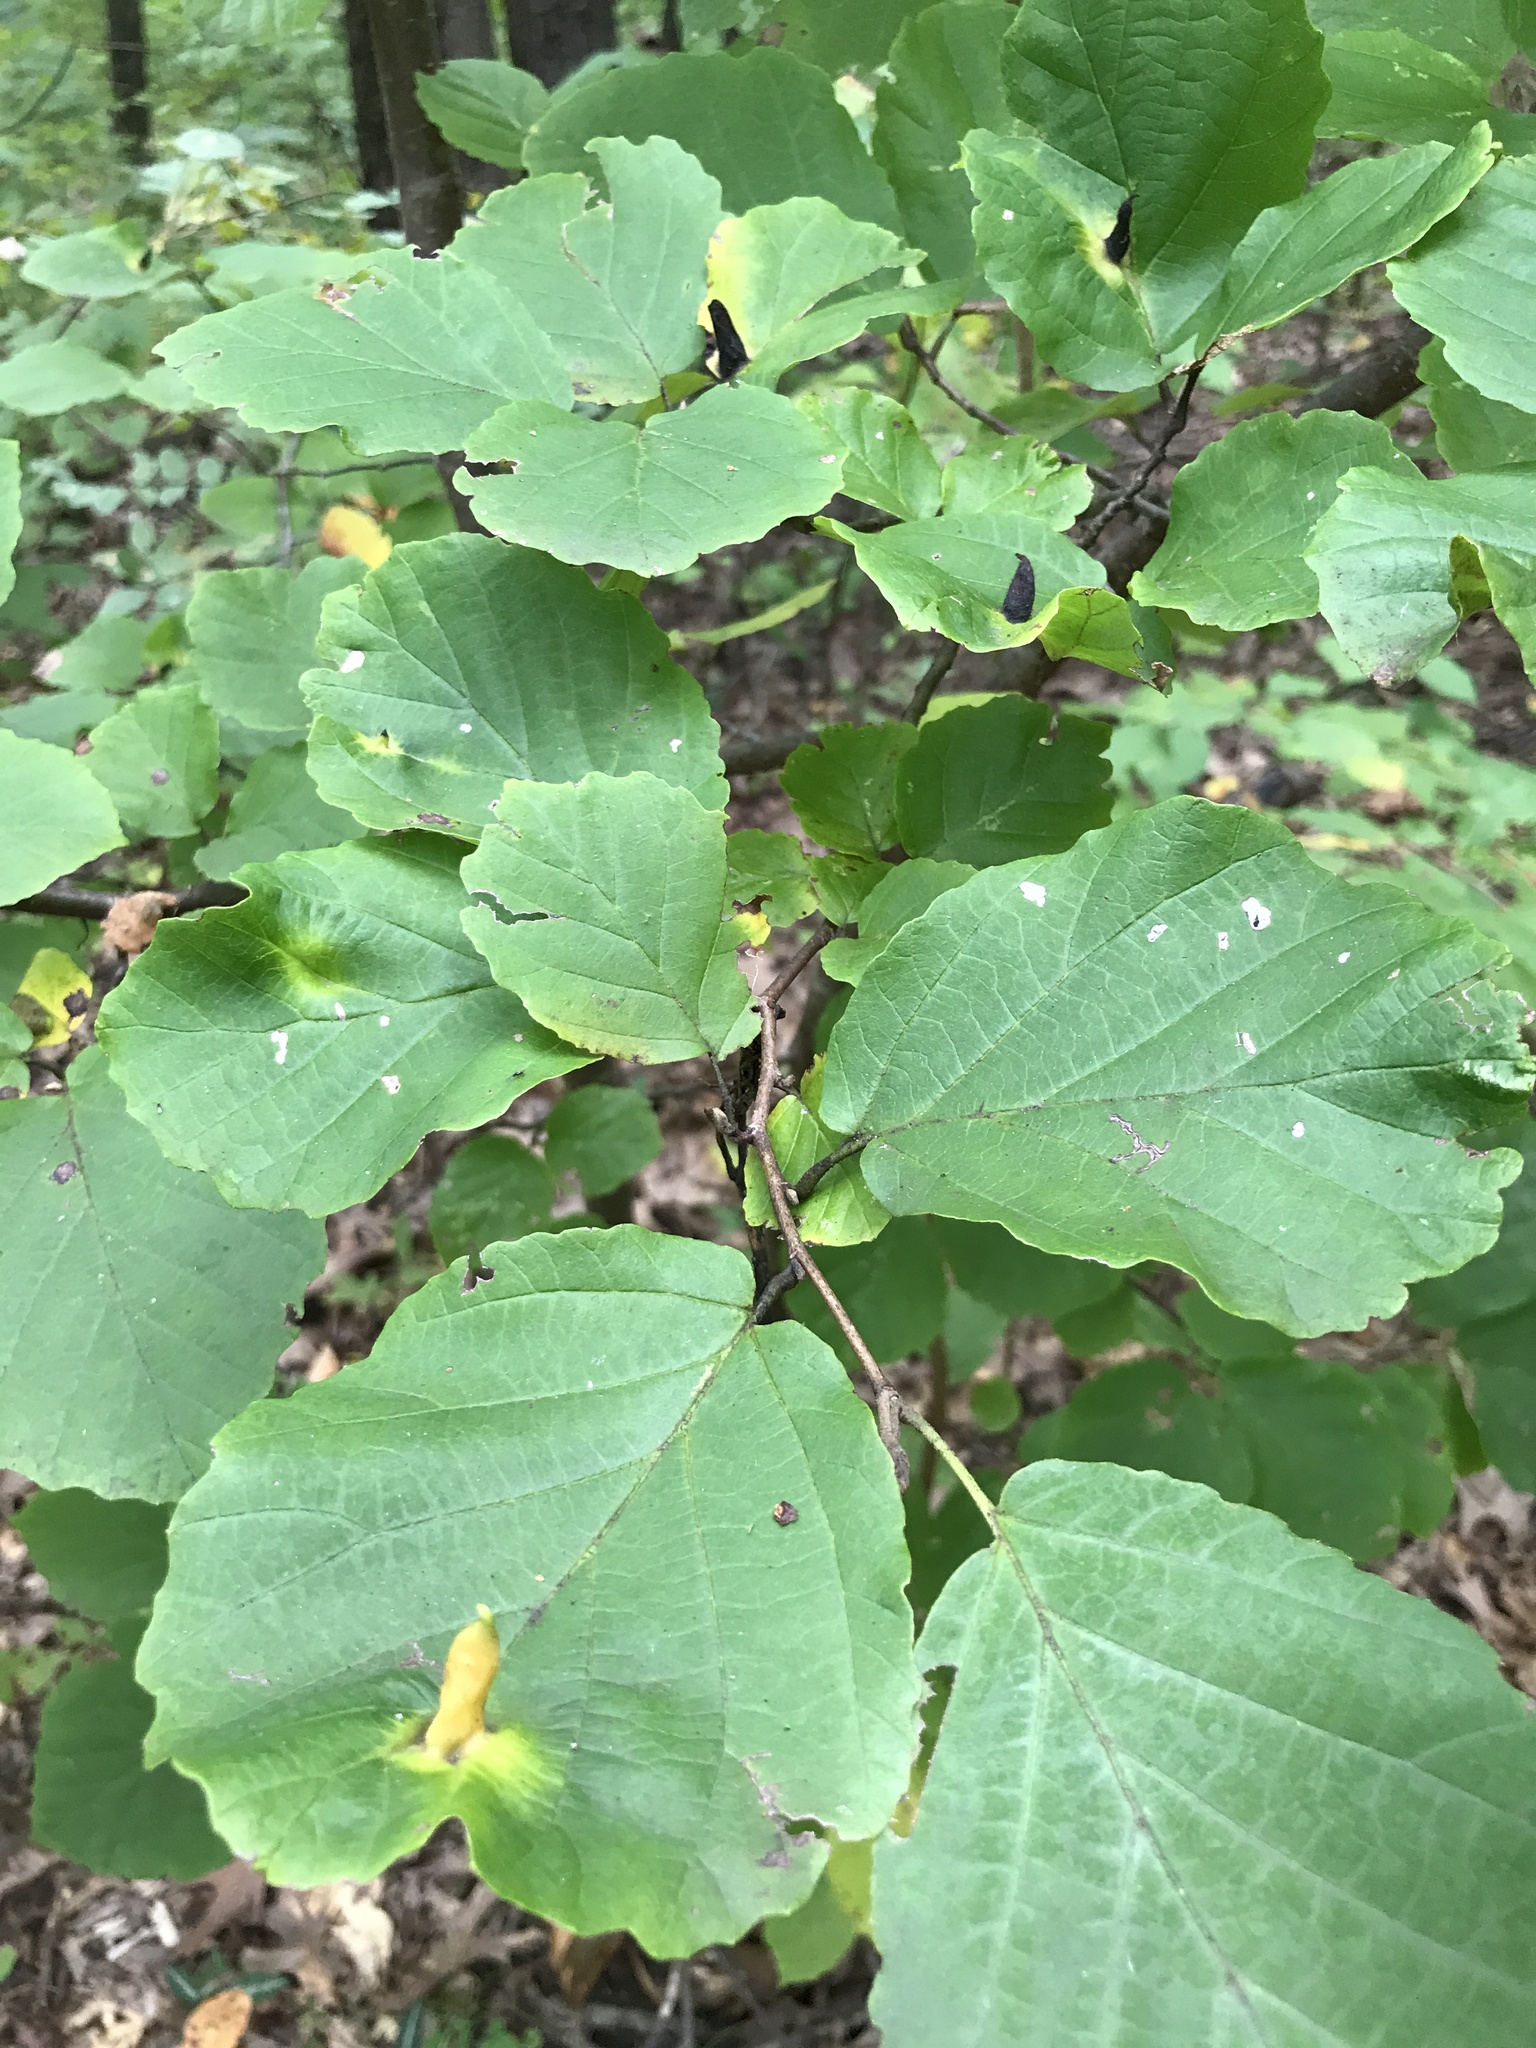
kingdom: Plantae
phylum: Tracheophyta
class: Magnoliopsida
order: Saxifragales
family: Hamamelidaceae
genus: Hamamelis
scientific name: Hamamelis virginiana
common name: Witch-hazel
